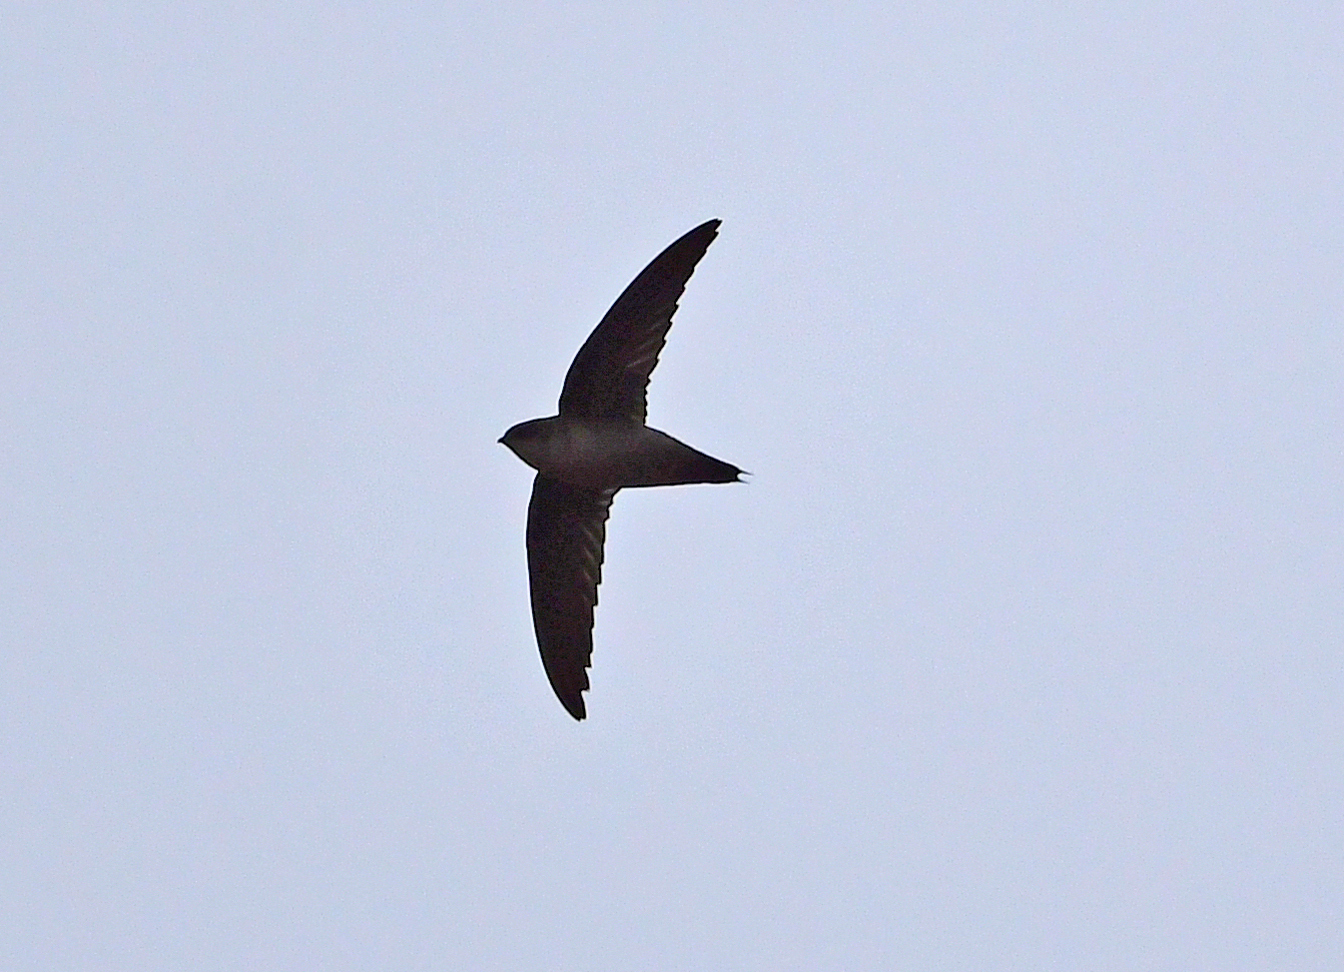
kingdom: Animalia
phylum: Chordata
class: Aves
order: Apodiformes
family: Apodidae
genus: Chaetura
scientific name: Chaetura vauxi
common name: Vaux's swift
